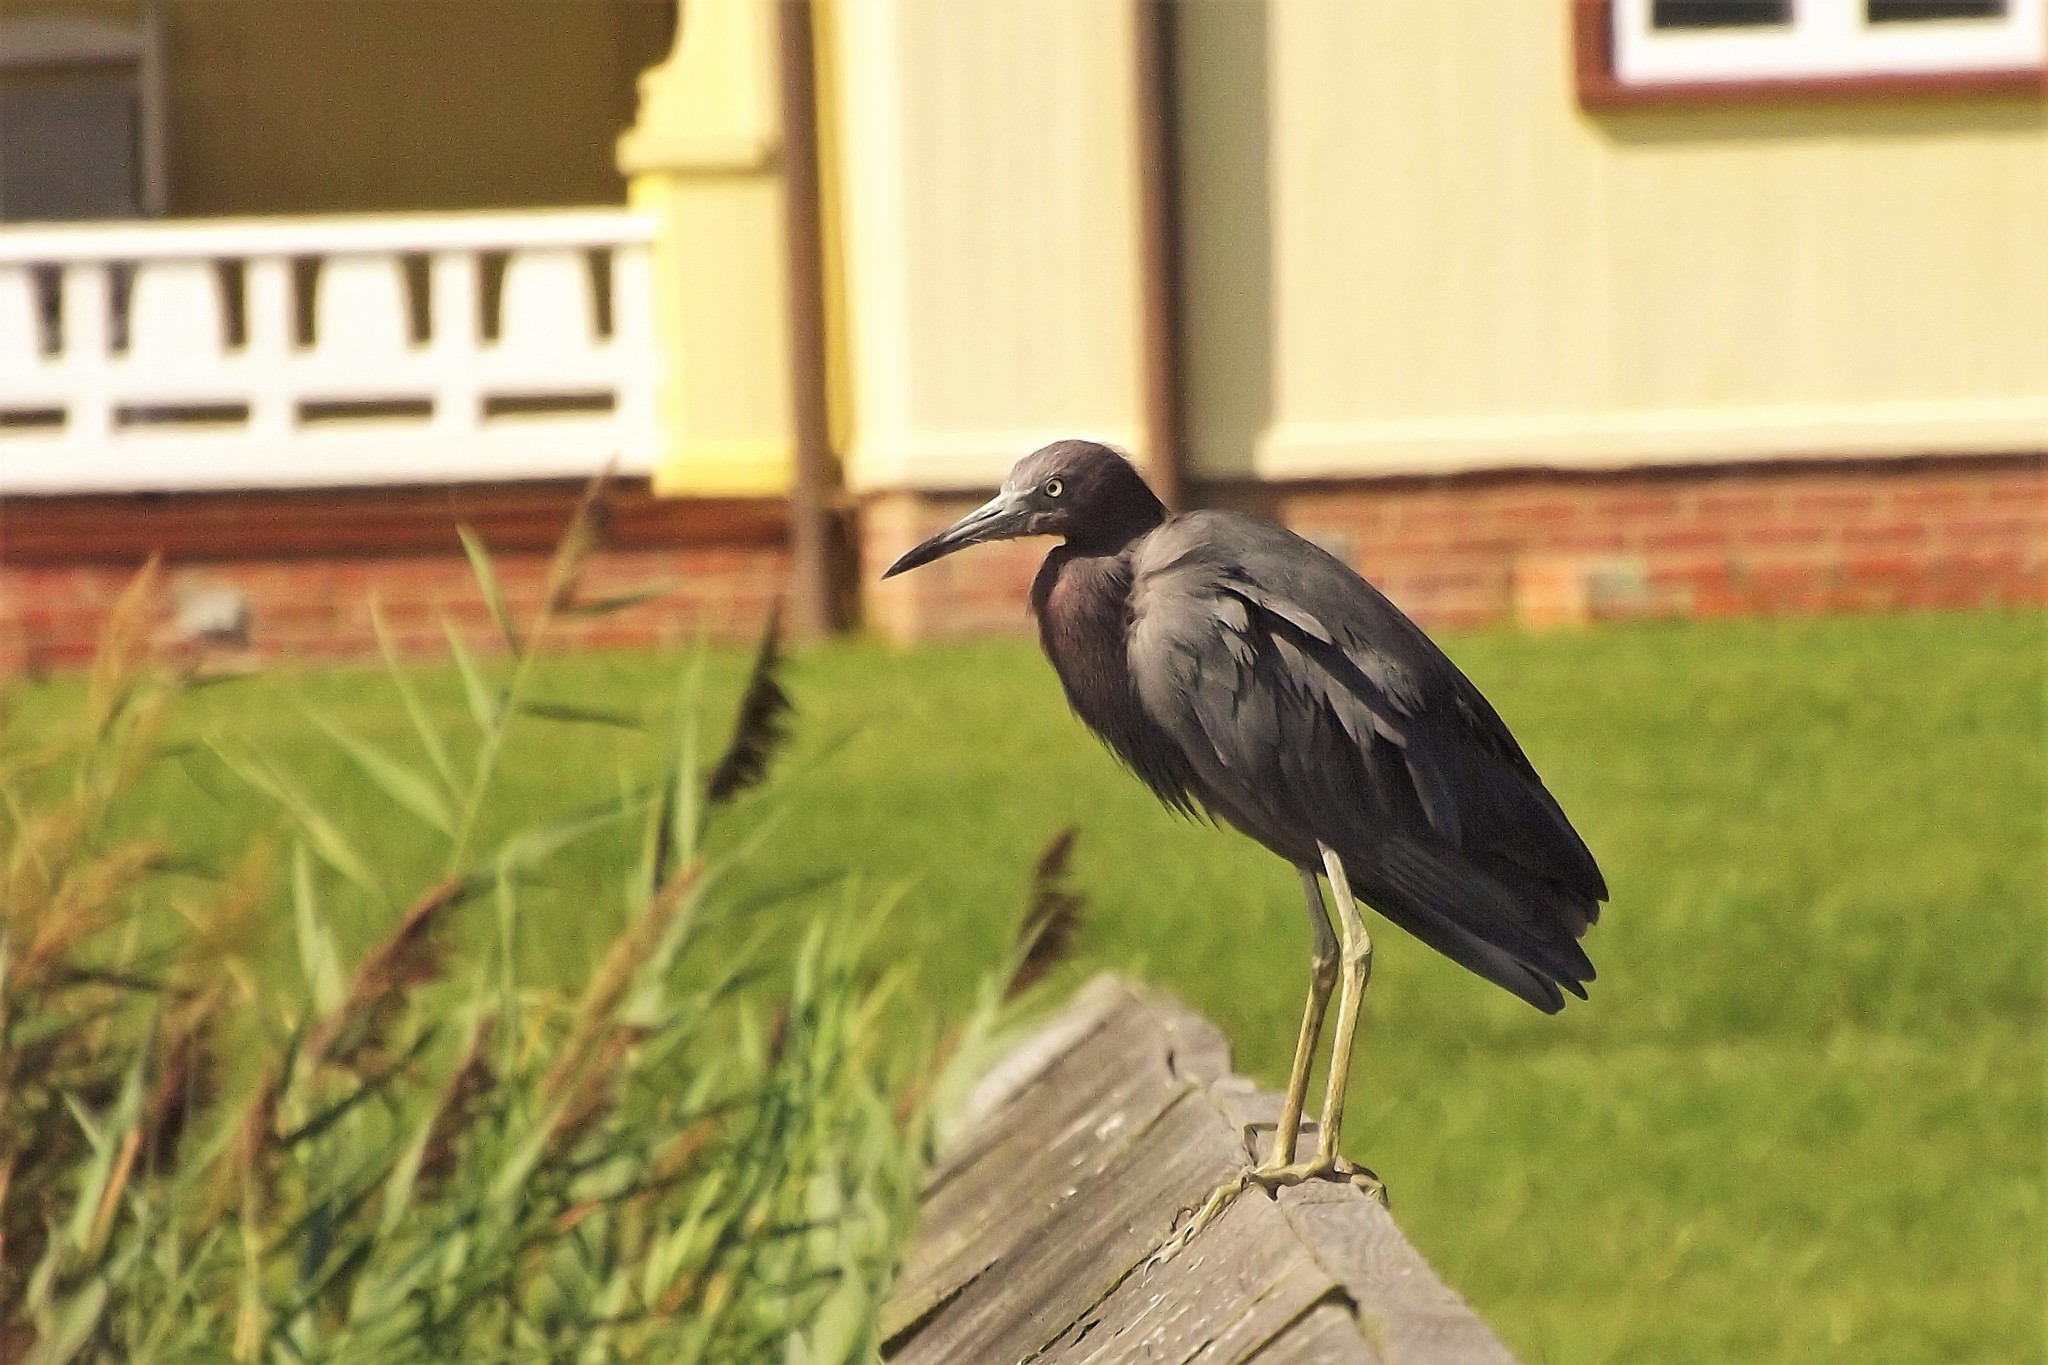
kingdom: Animalia
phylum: Chordata
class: Aves
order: Pelecaniformes
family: Ardeidae
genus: Egretta
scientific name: Egretta caerulea
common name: Little blue heron
